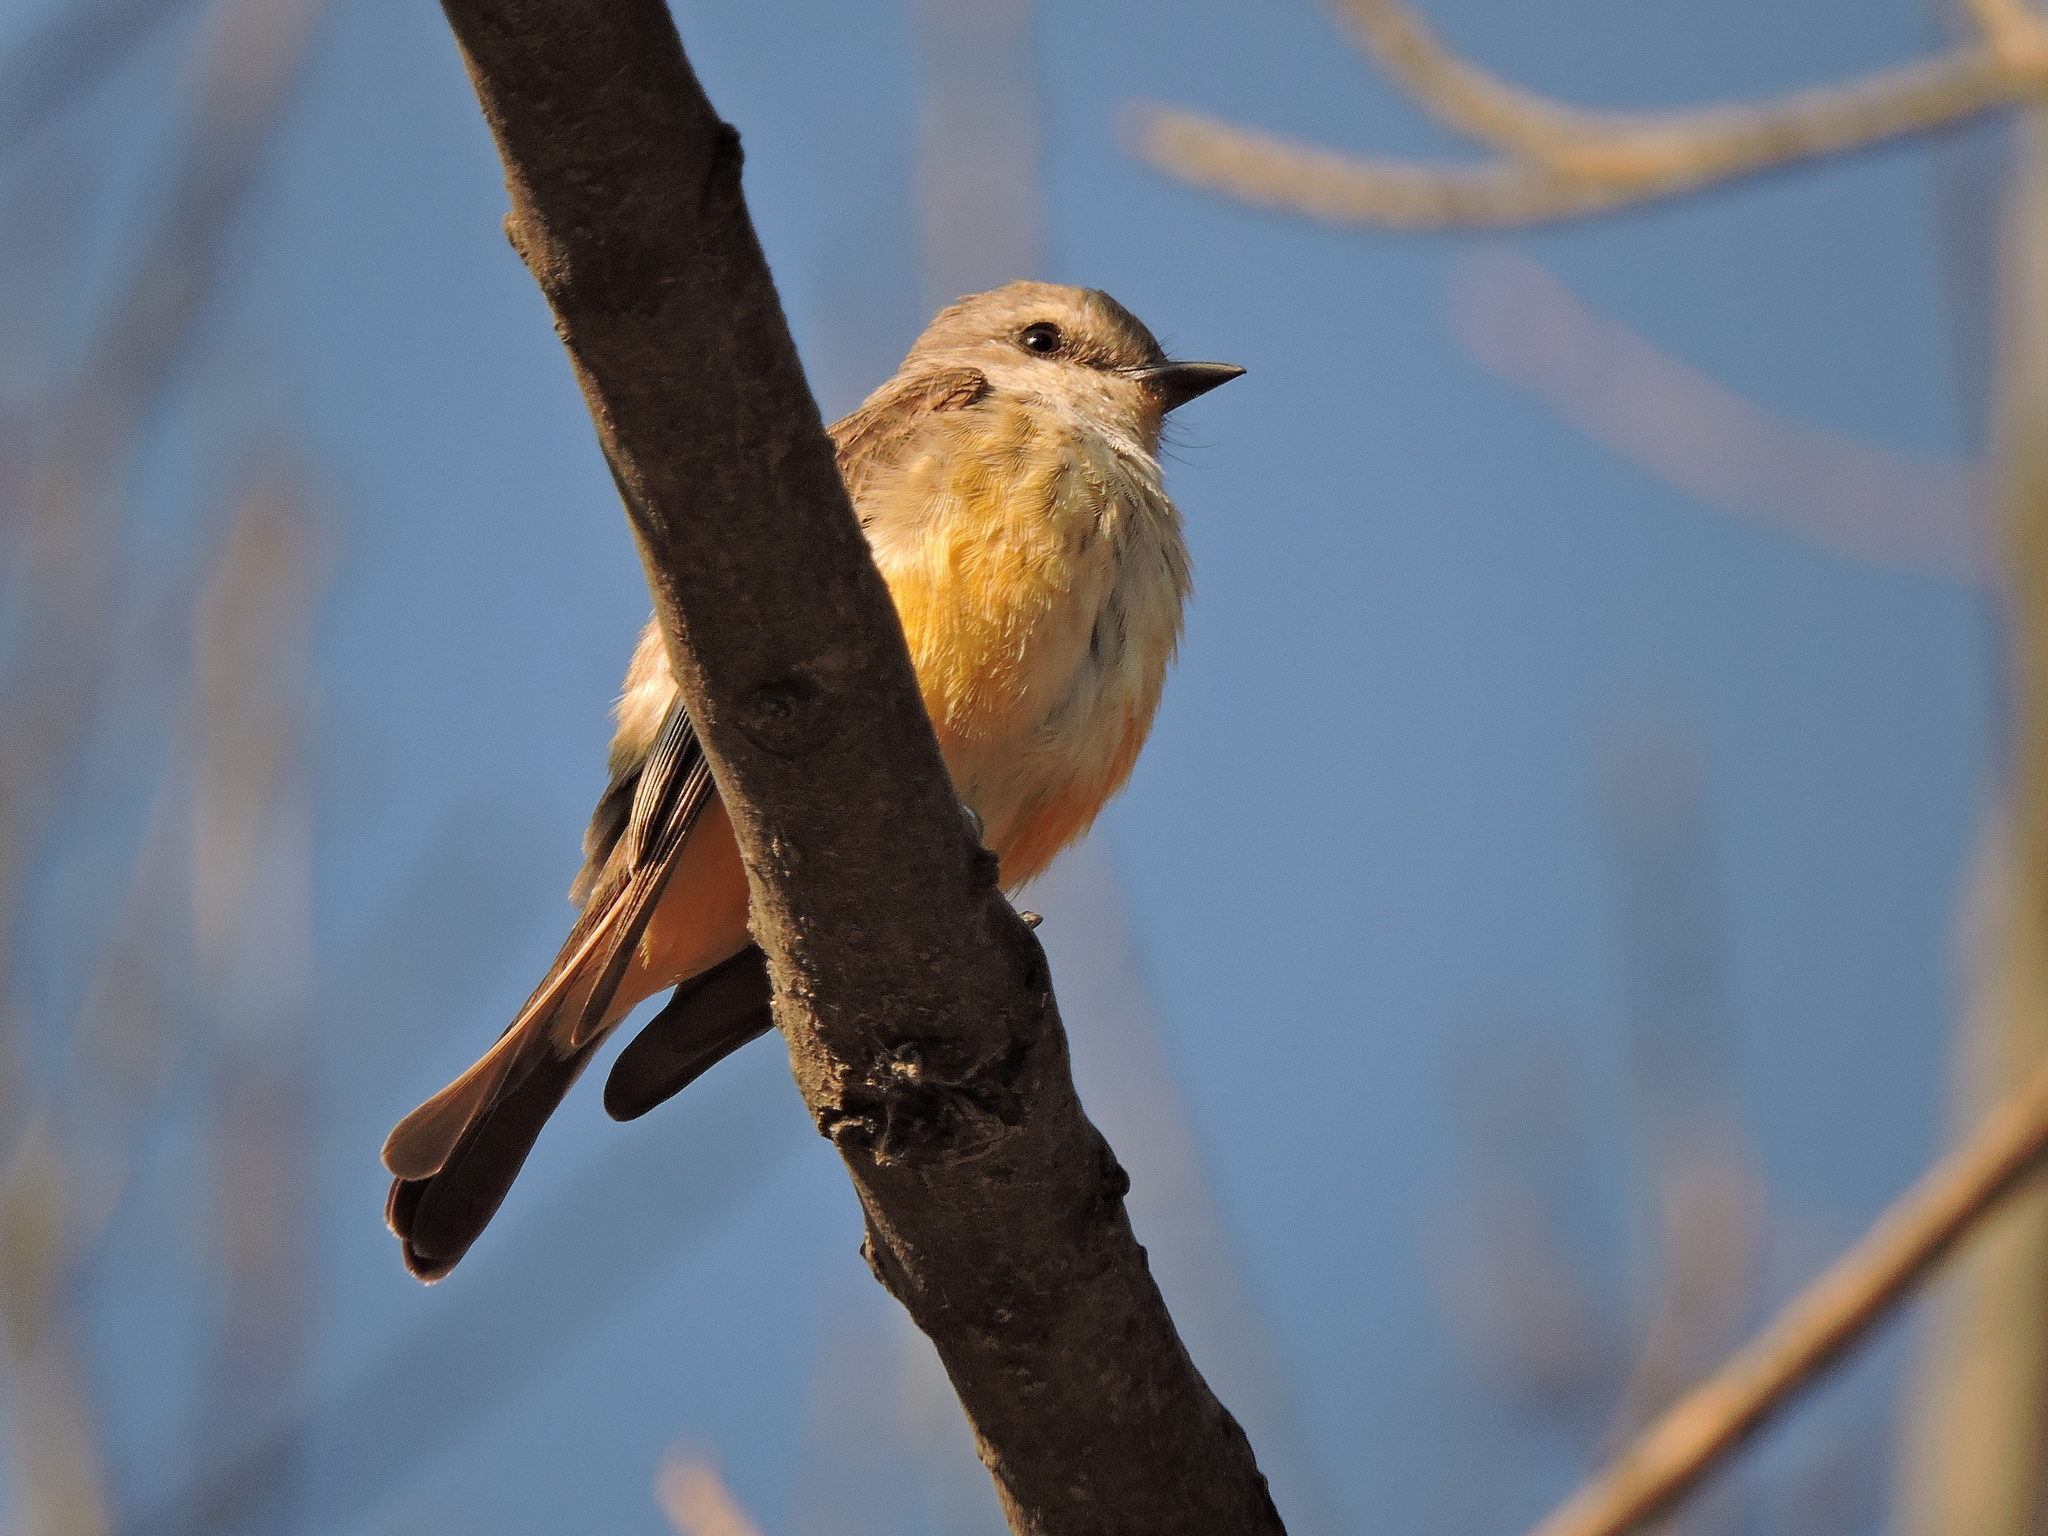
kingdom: Animalia
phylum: Chordata
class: Aves
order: Passeriformes
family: Tyrannidae
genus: Pyrocephalus
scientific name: Pyrocephalus rubinus
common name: Vermilion flycatcher
